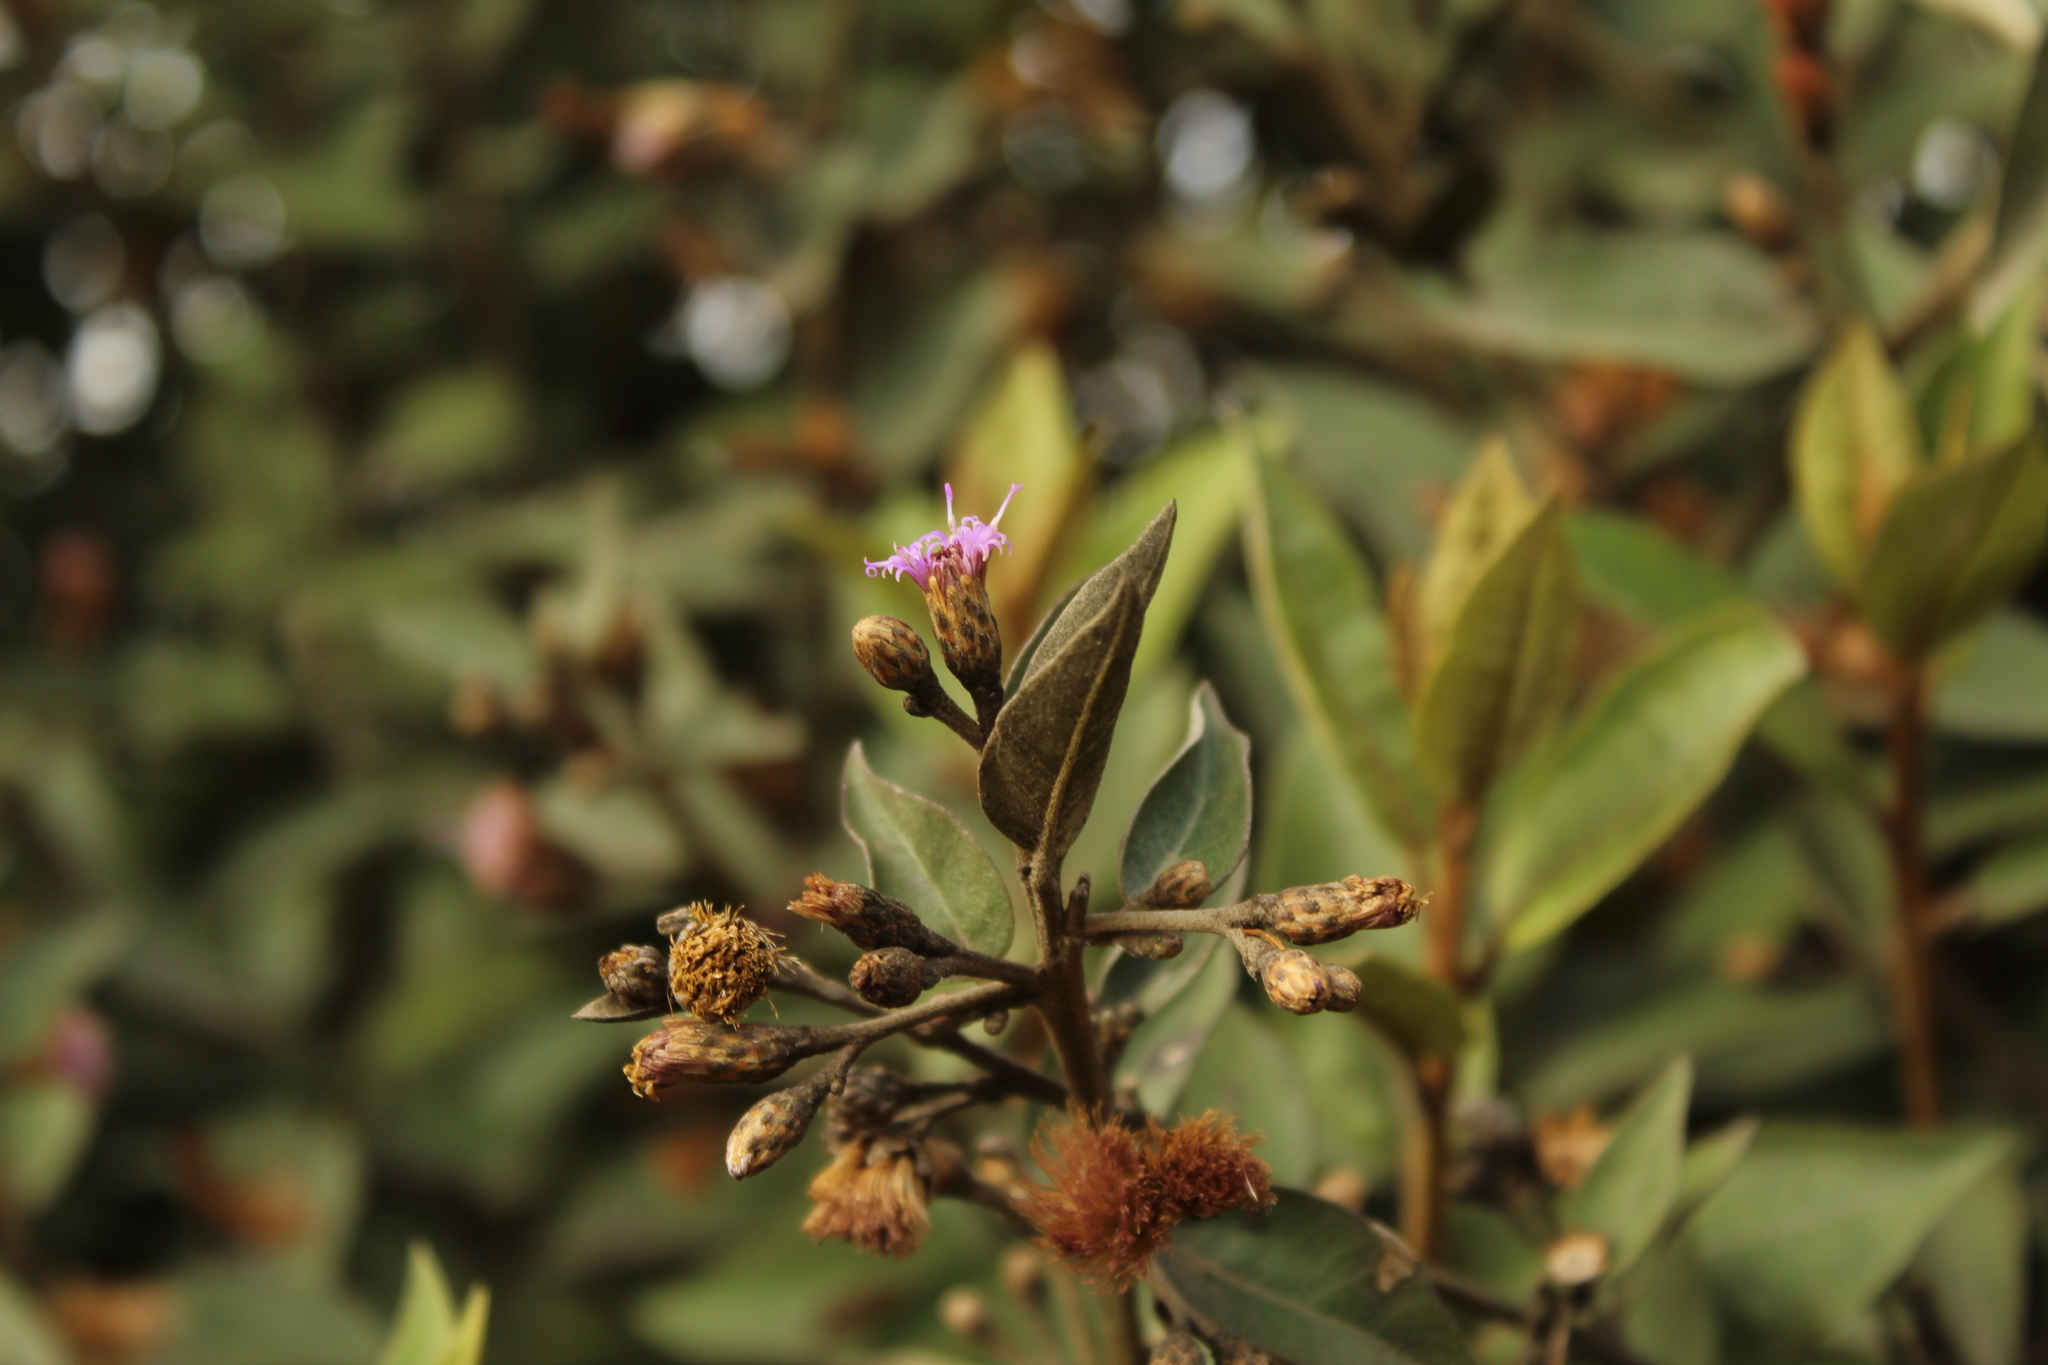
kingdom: Plantae
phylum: Tracheophyta
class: Magnoliopsida
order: Asterales
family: Asteraceae
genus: Lepidaploa
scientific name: Lepidaploa karstenii
